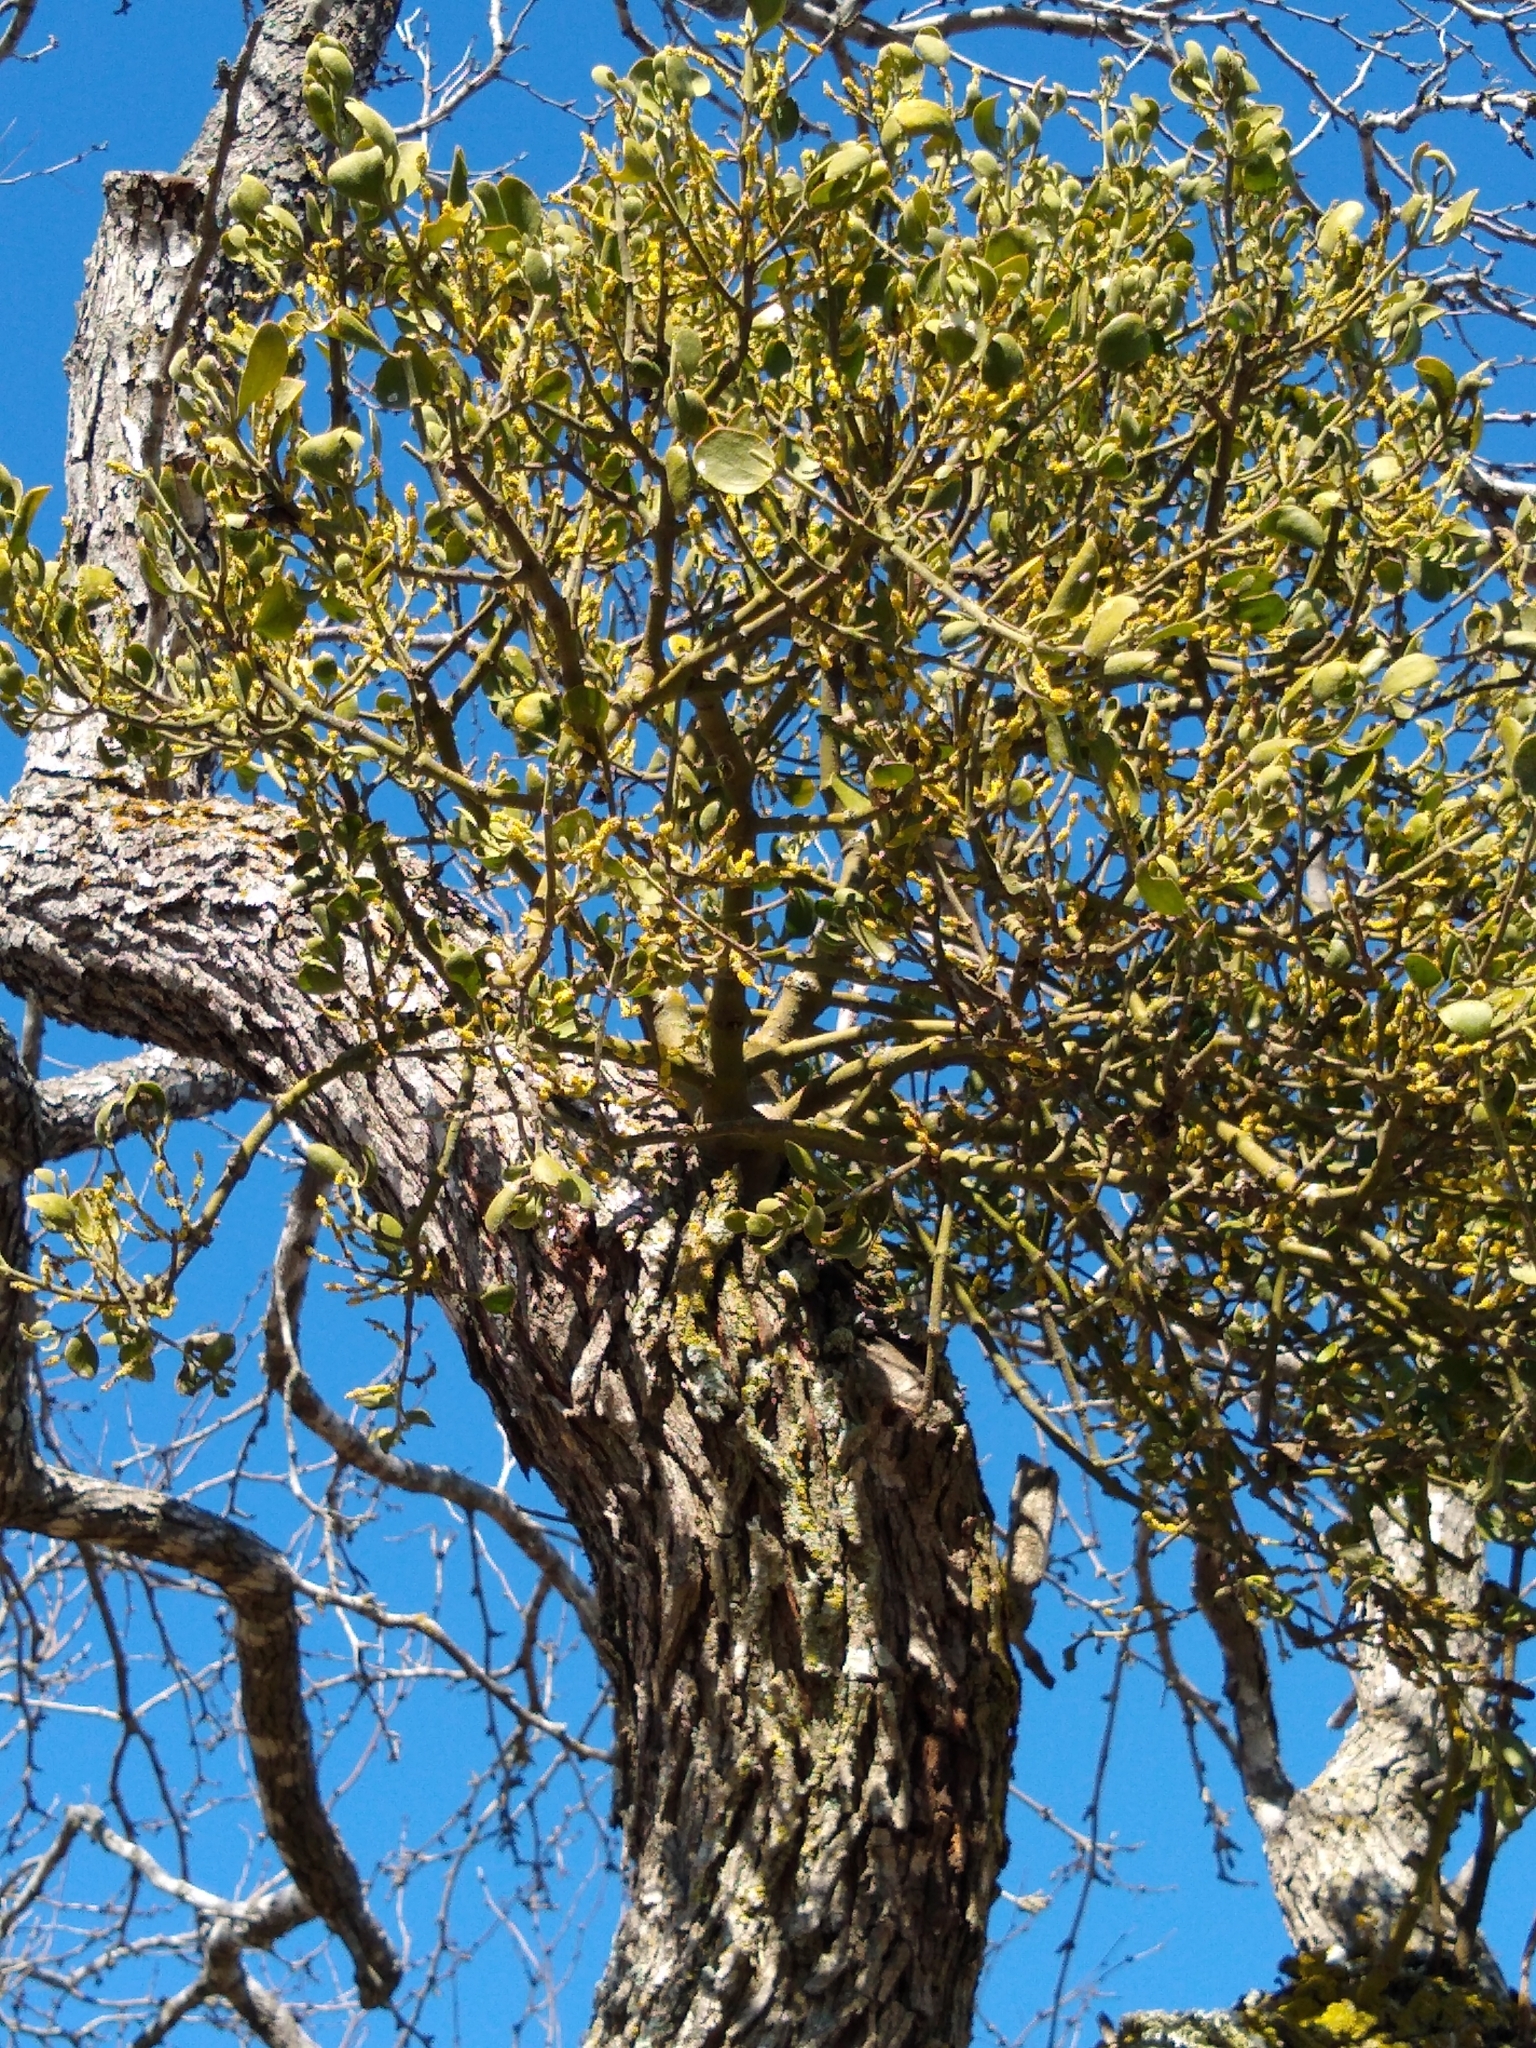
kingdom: Plantae
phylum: Tracheophyta
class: Magnoliopsida
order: Santalales
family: Viscaceae
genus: Phoradendron
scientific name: Phoradendron leucarpum
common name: Pacific mistletoe
